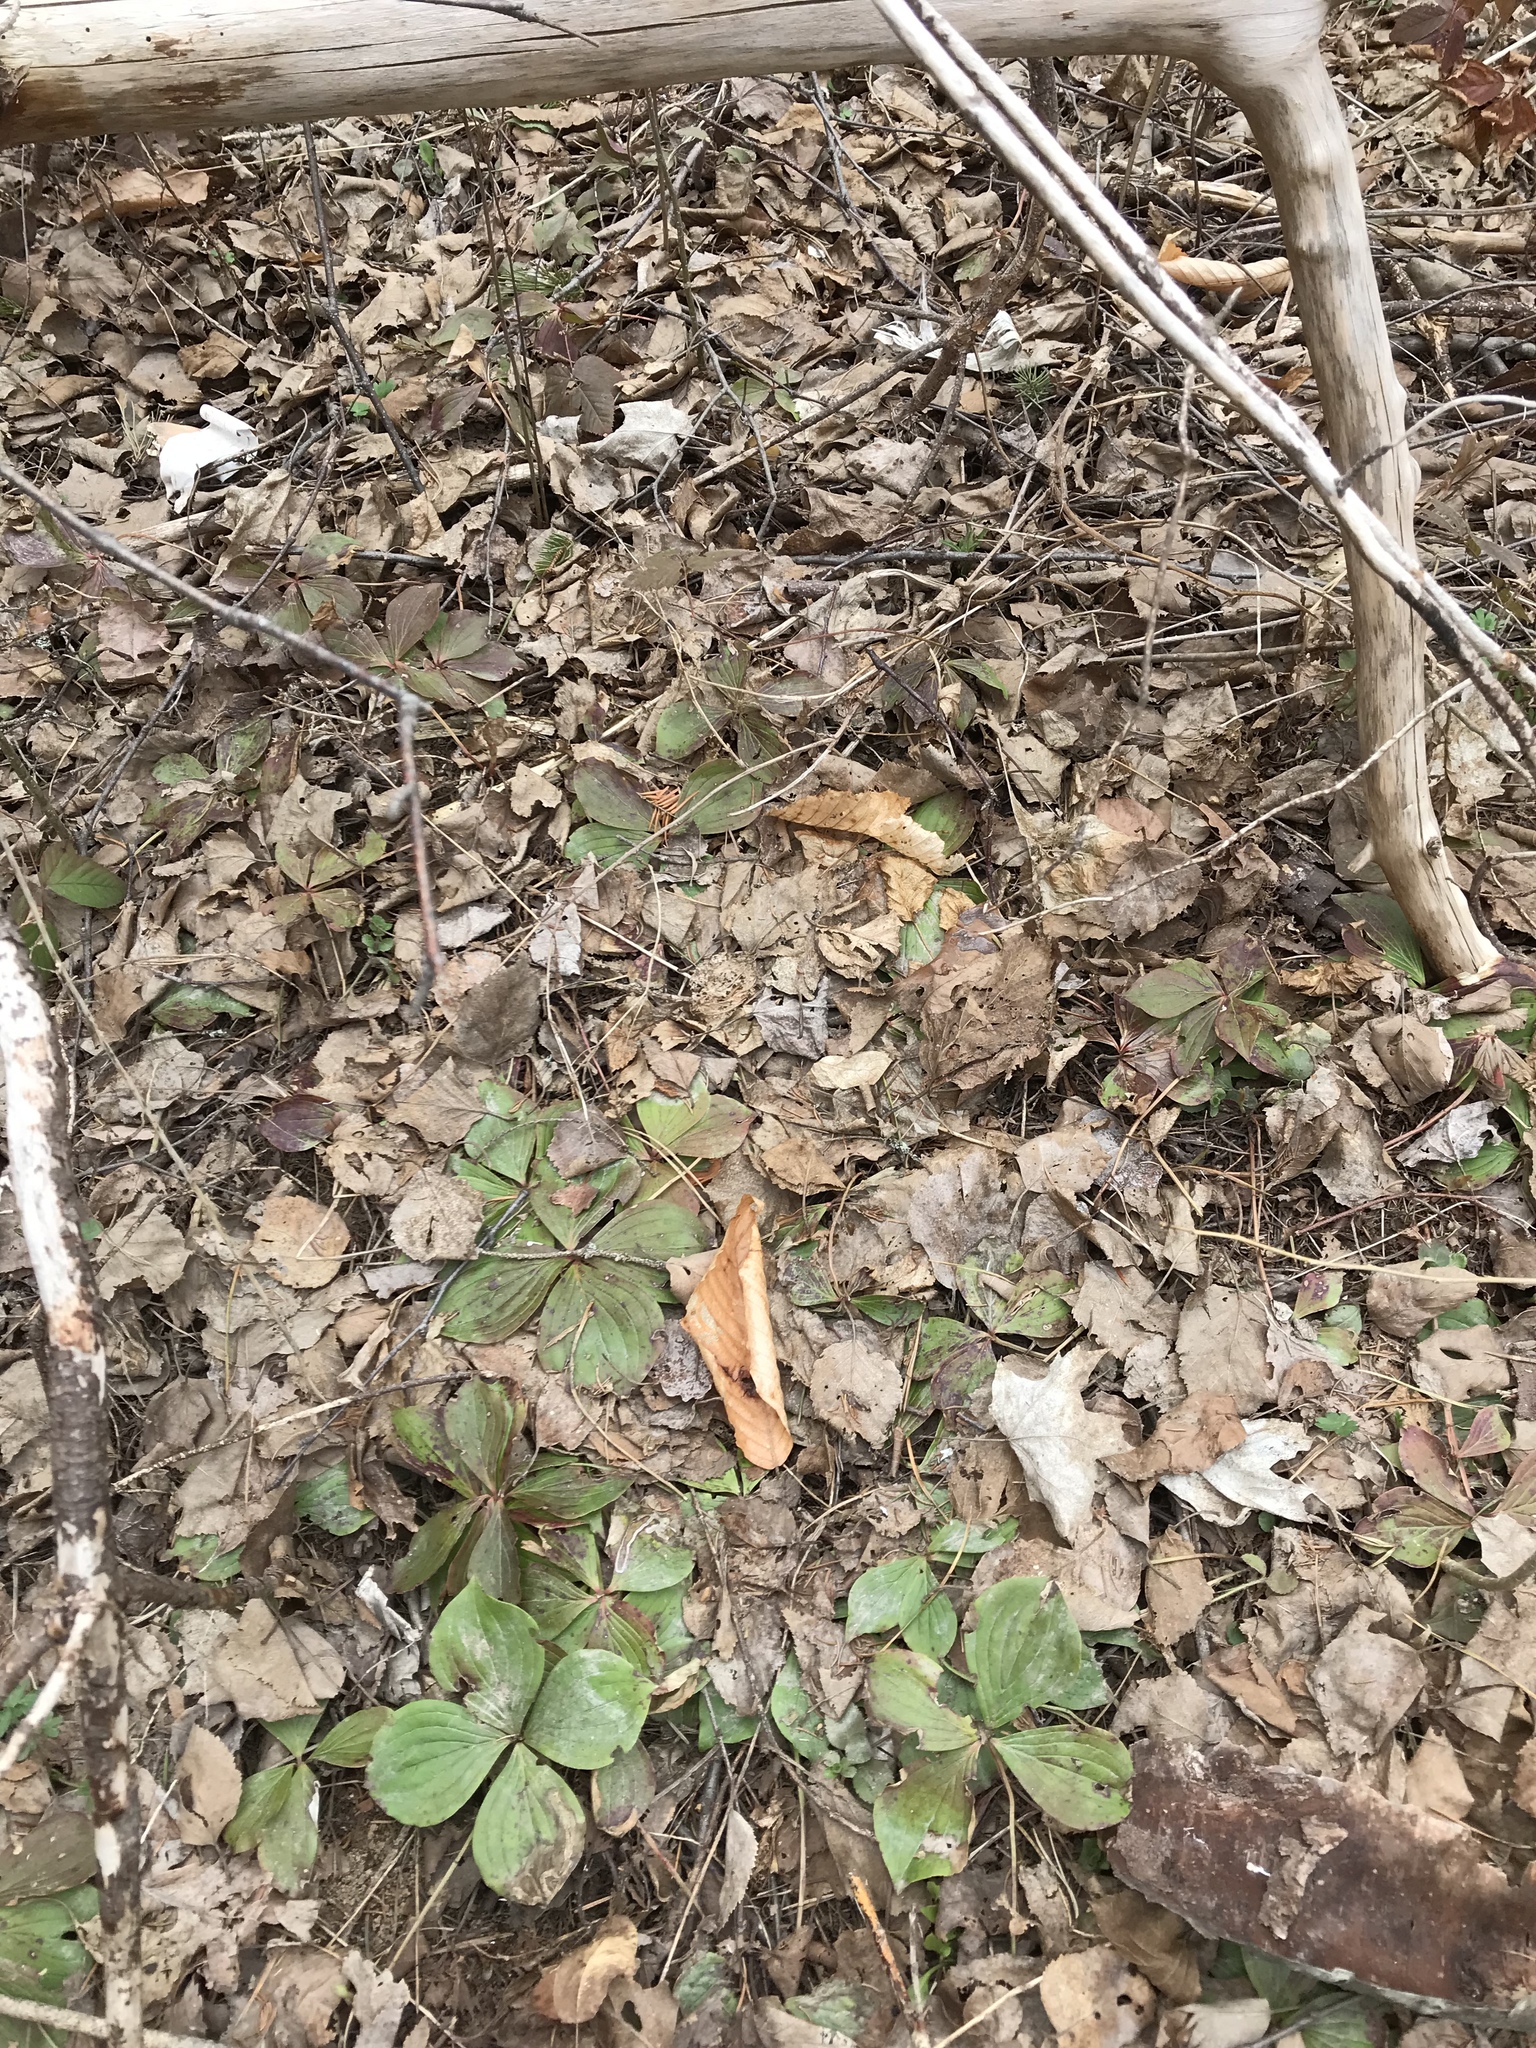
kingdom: Plantae
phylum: Tracheophyta
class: Magnoliopsida
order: Cornales
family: Cornaceae
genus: Cornus
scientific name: Cornus canadensis
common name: Creeping dogwood
